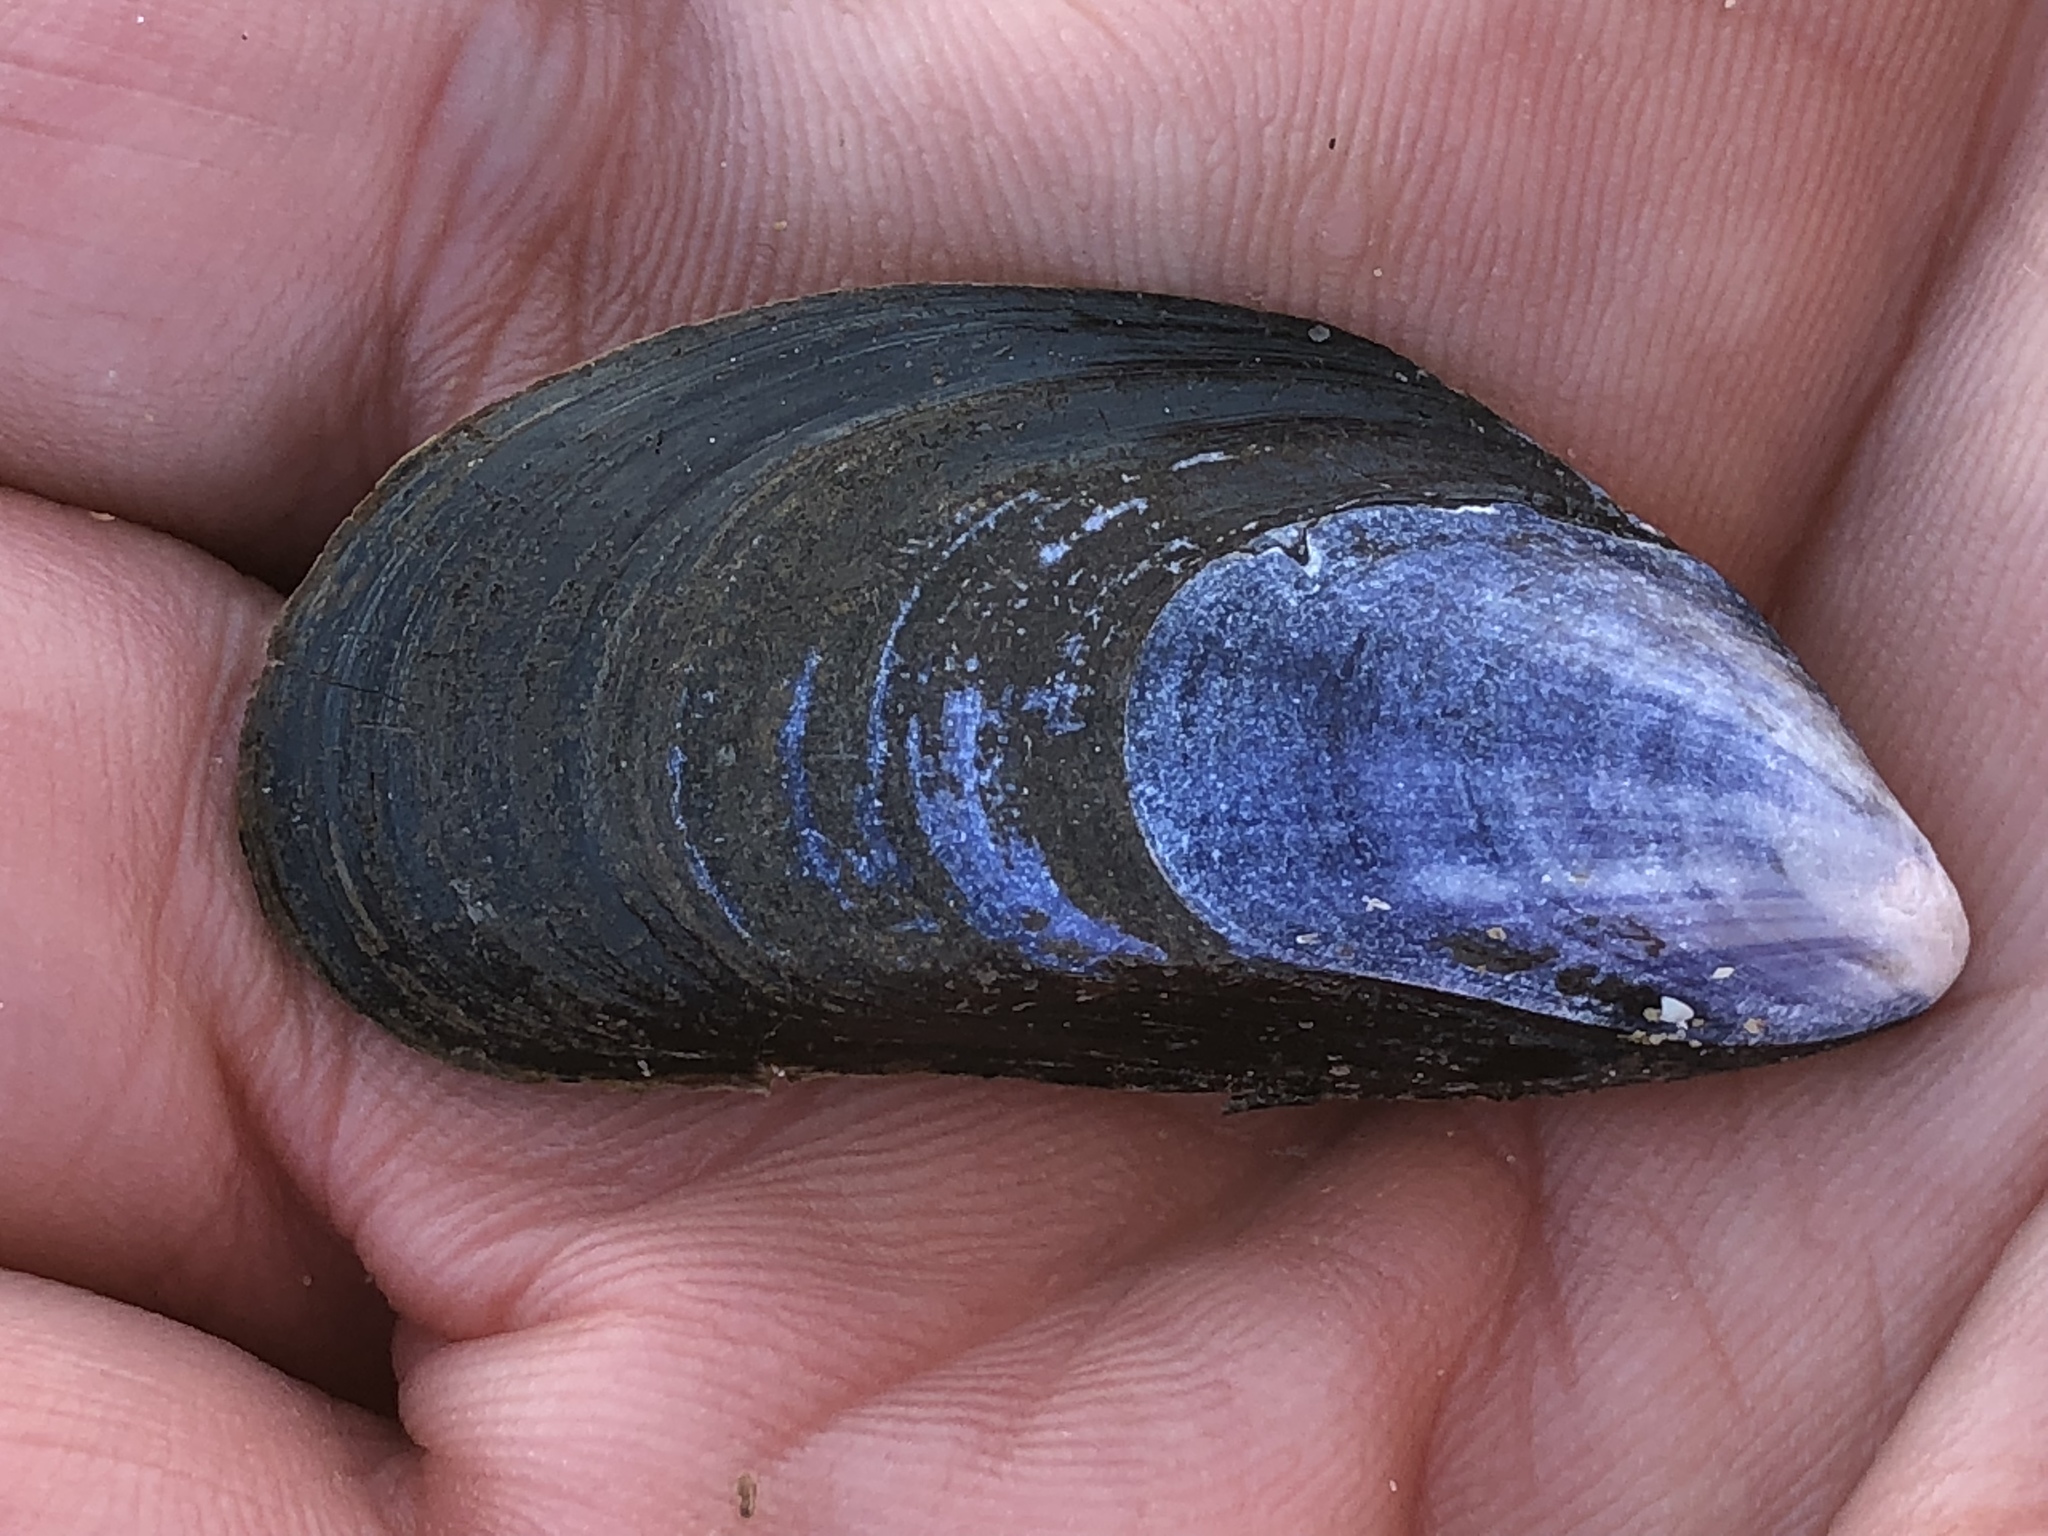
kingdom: Animalia
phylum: Mollusca
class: Bivalvia
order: Mytilida
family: Mytilidae
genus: Mytilus
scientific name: Mytilus edulis
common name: Blue mussel
